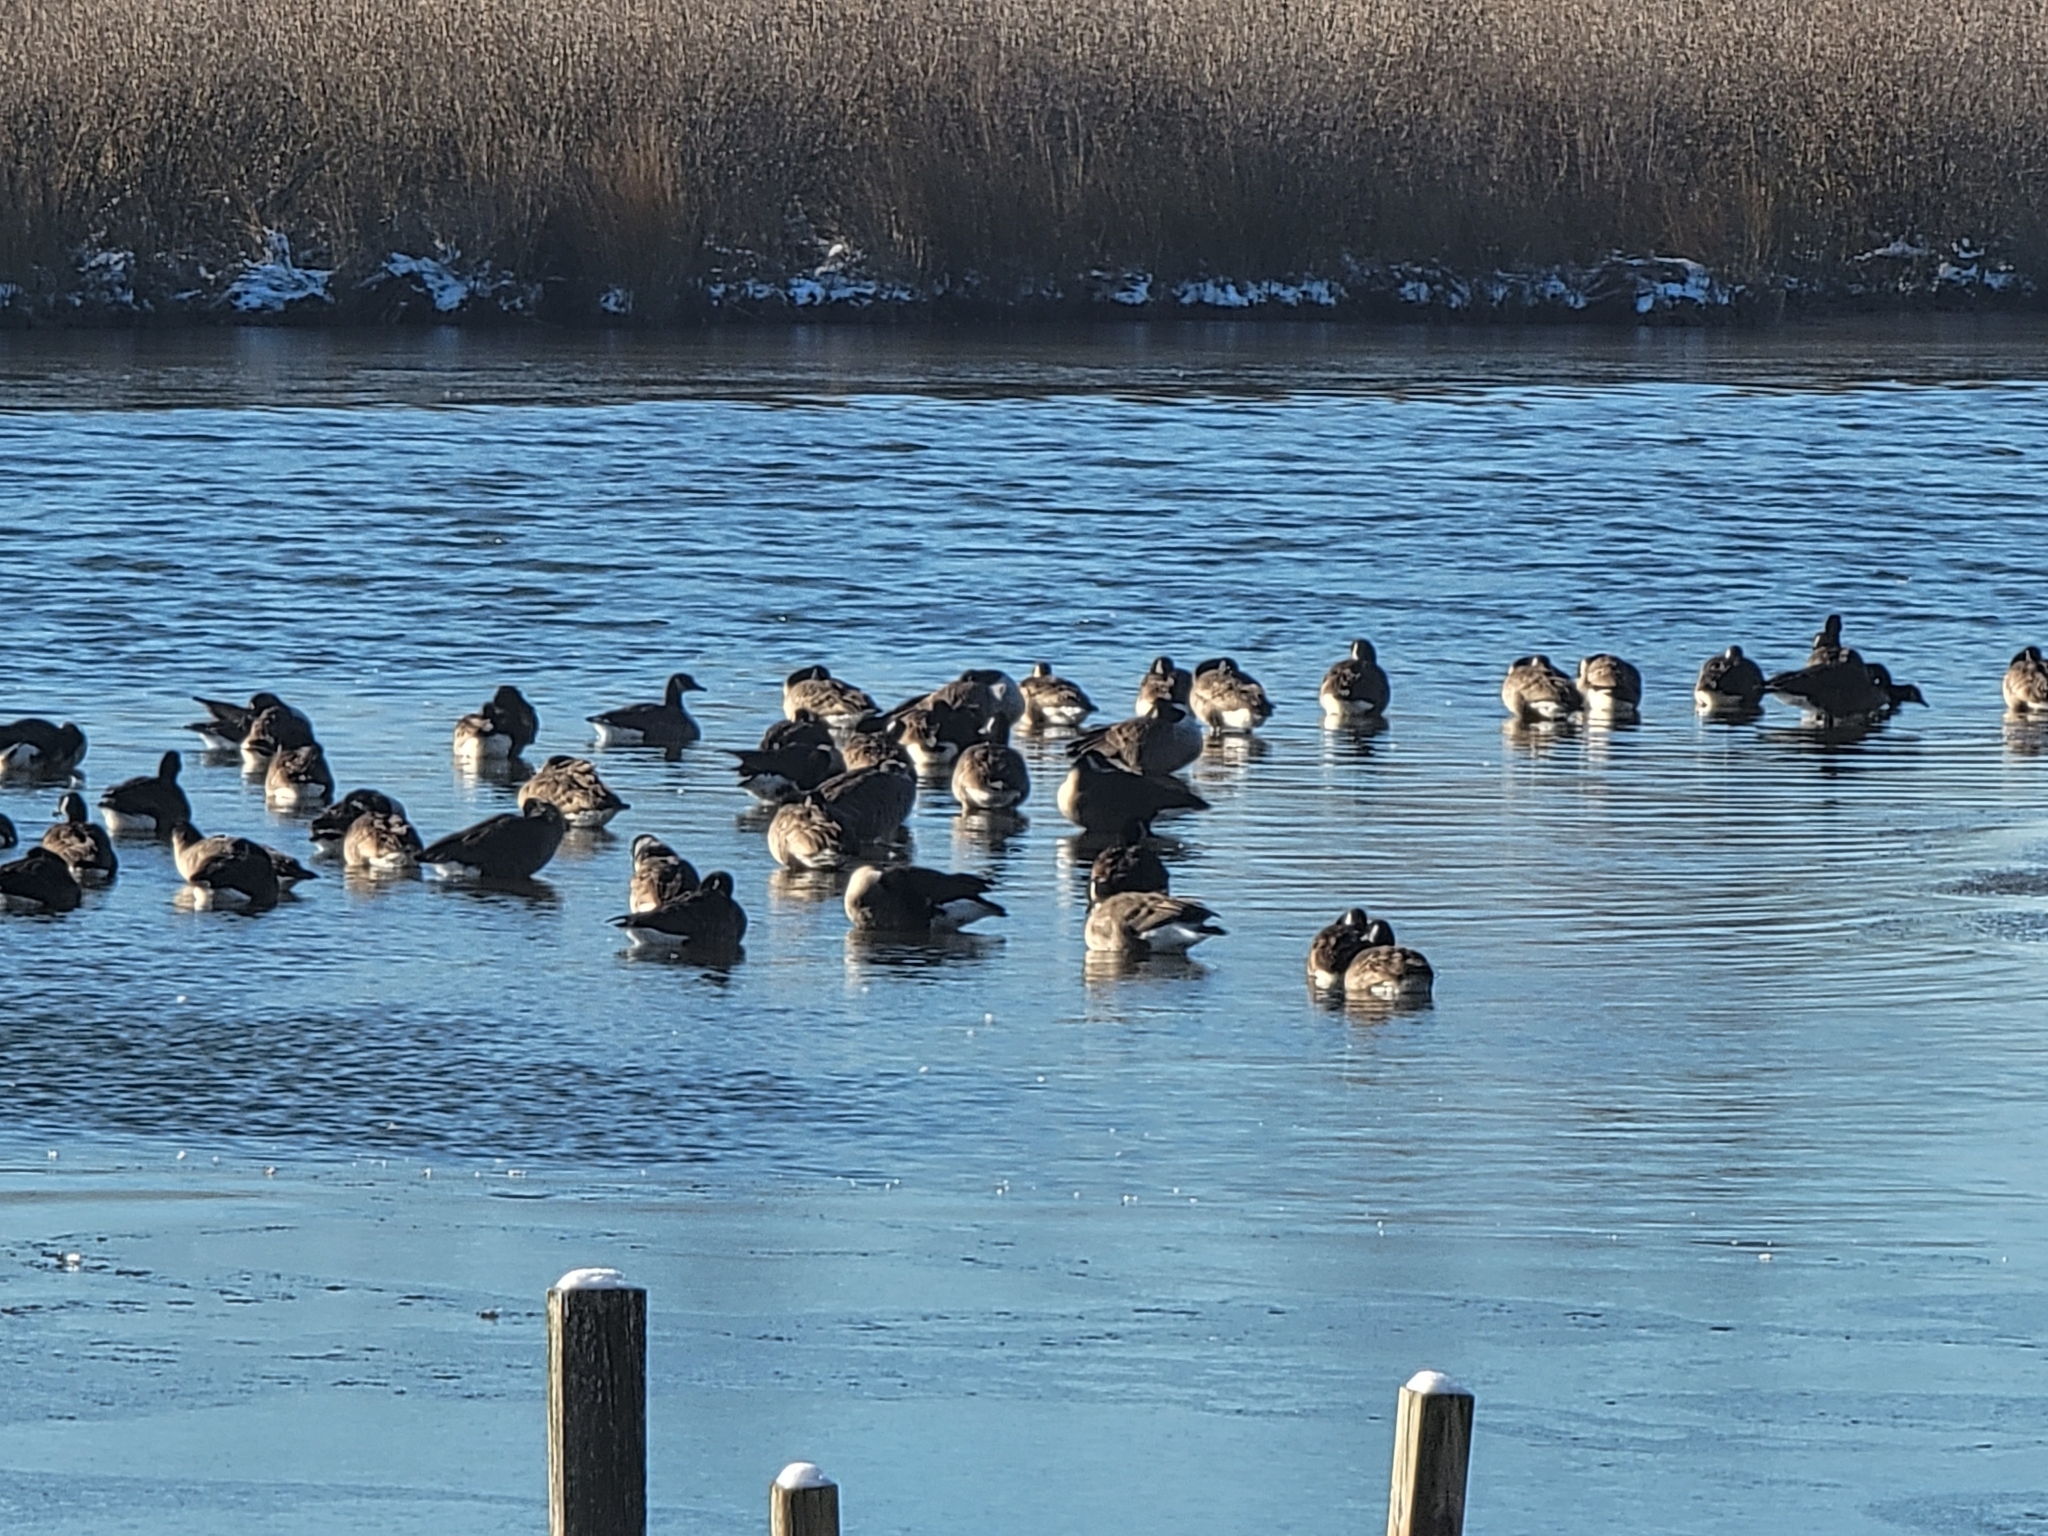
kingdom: Animalia
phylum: Chordata
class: Aves
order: Anseriformes
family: Anatidae
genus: Branta
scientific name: Branta canadensis
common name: Canada goose
